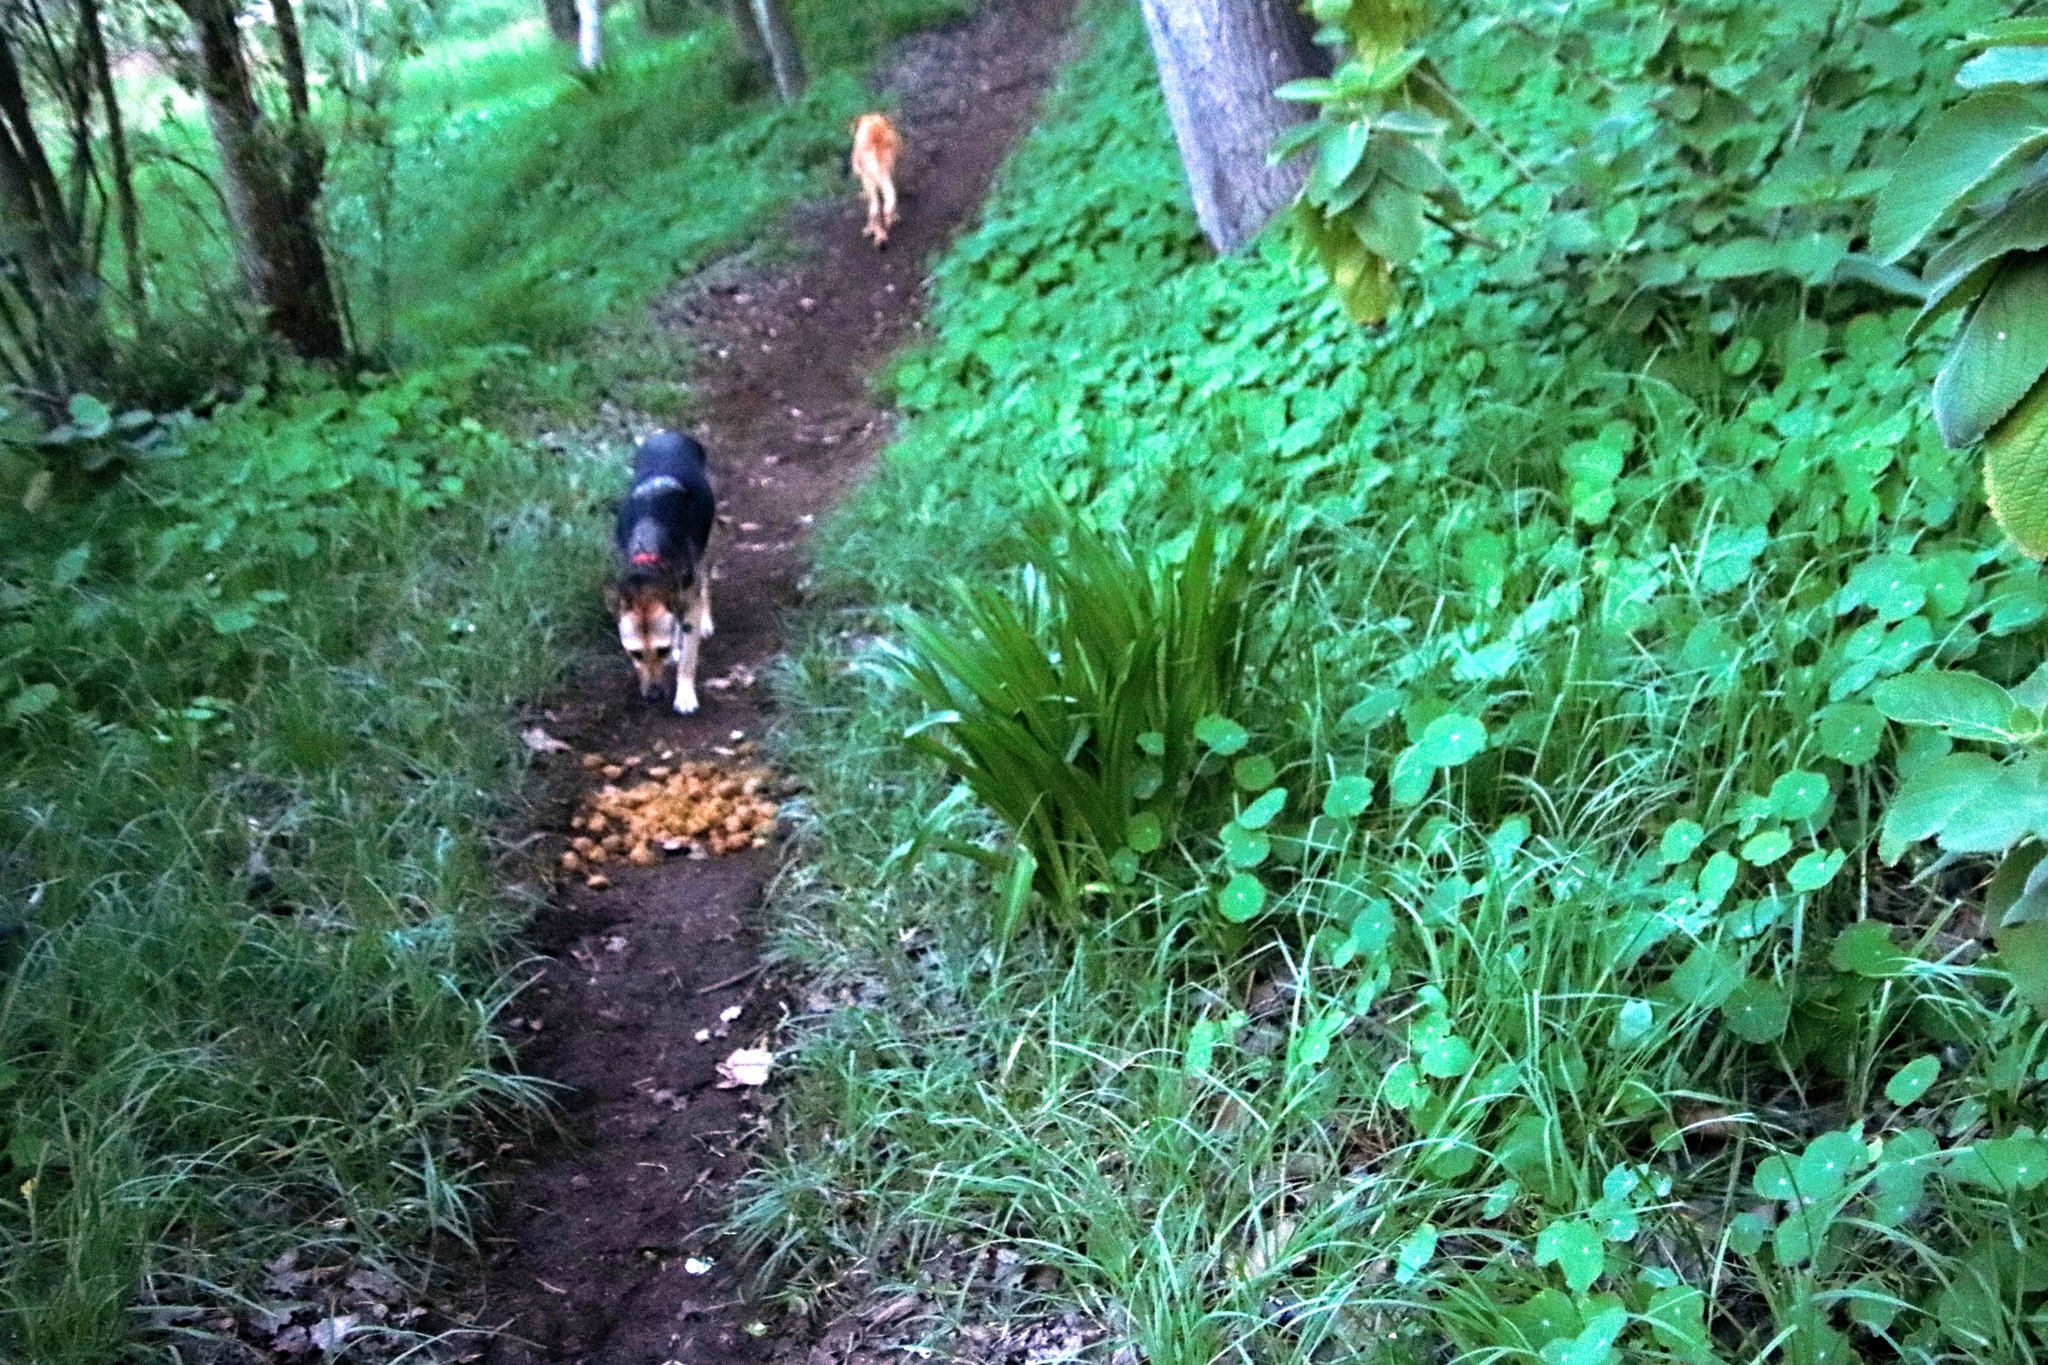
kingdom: Plantae
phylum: Tracheophyta
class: Liliopsida
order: Asparagales
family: Amaryllidaceae
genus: Agapanthus
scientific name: Agapanthus praecox
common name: African-lily
